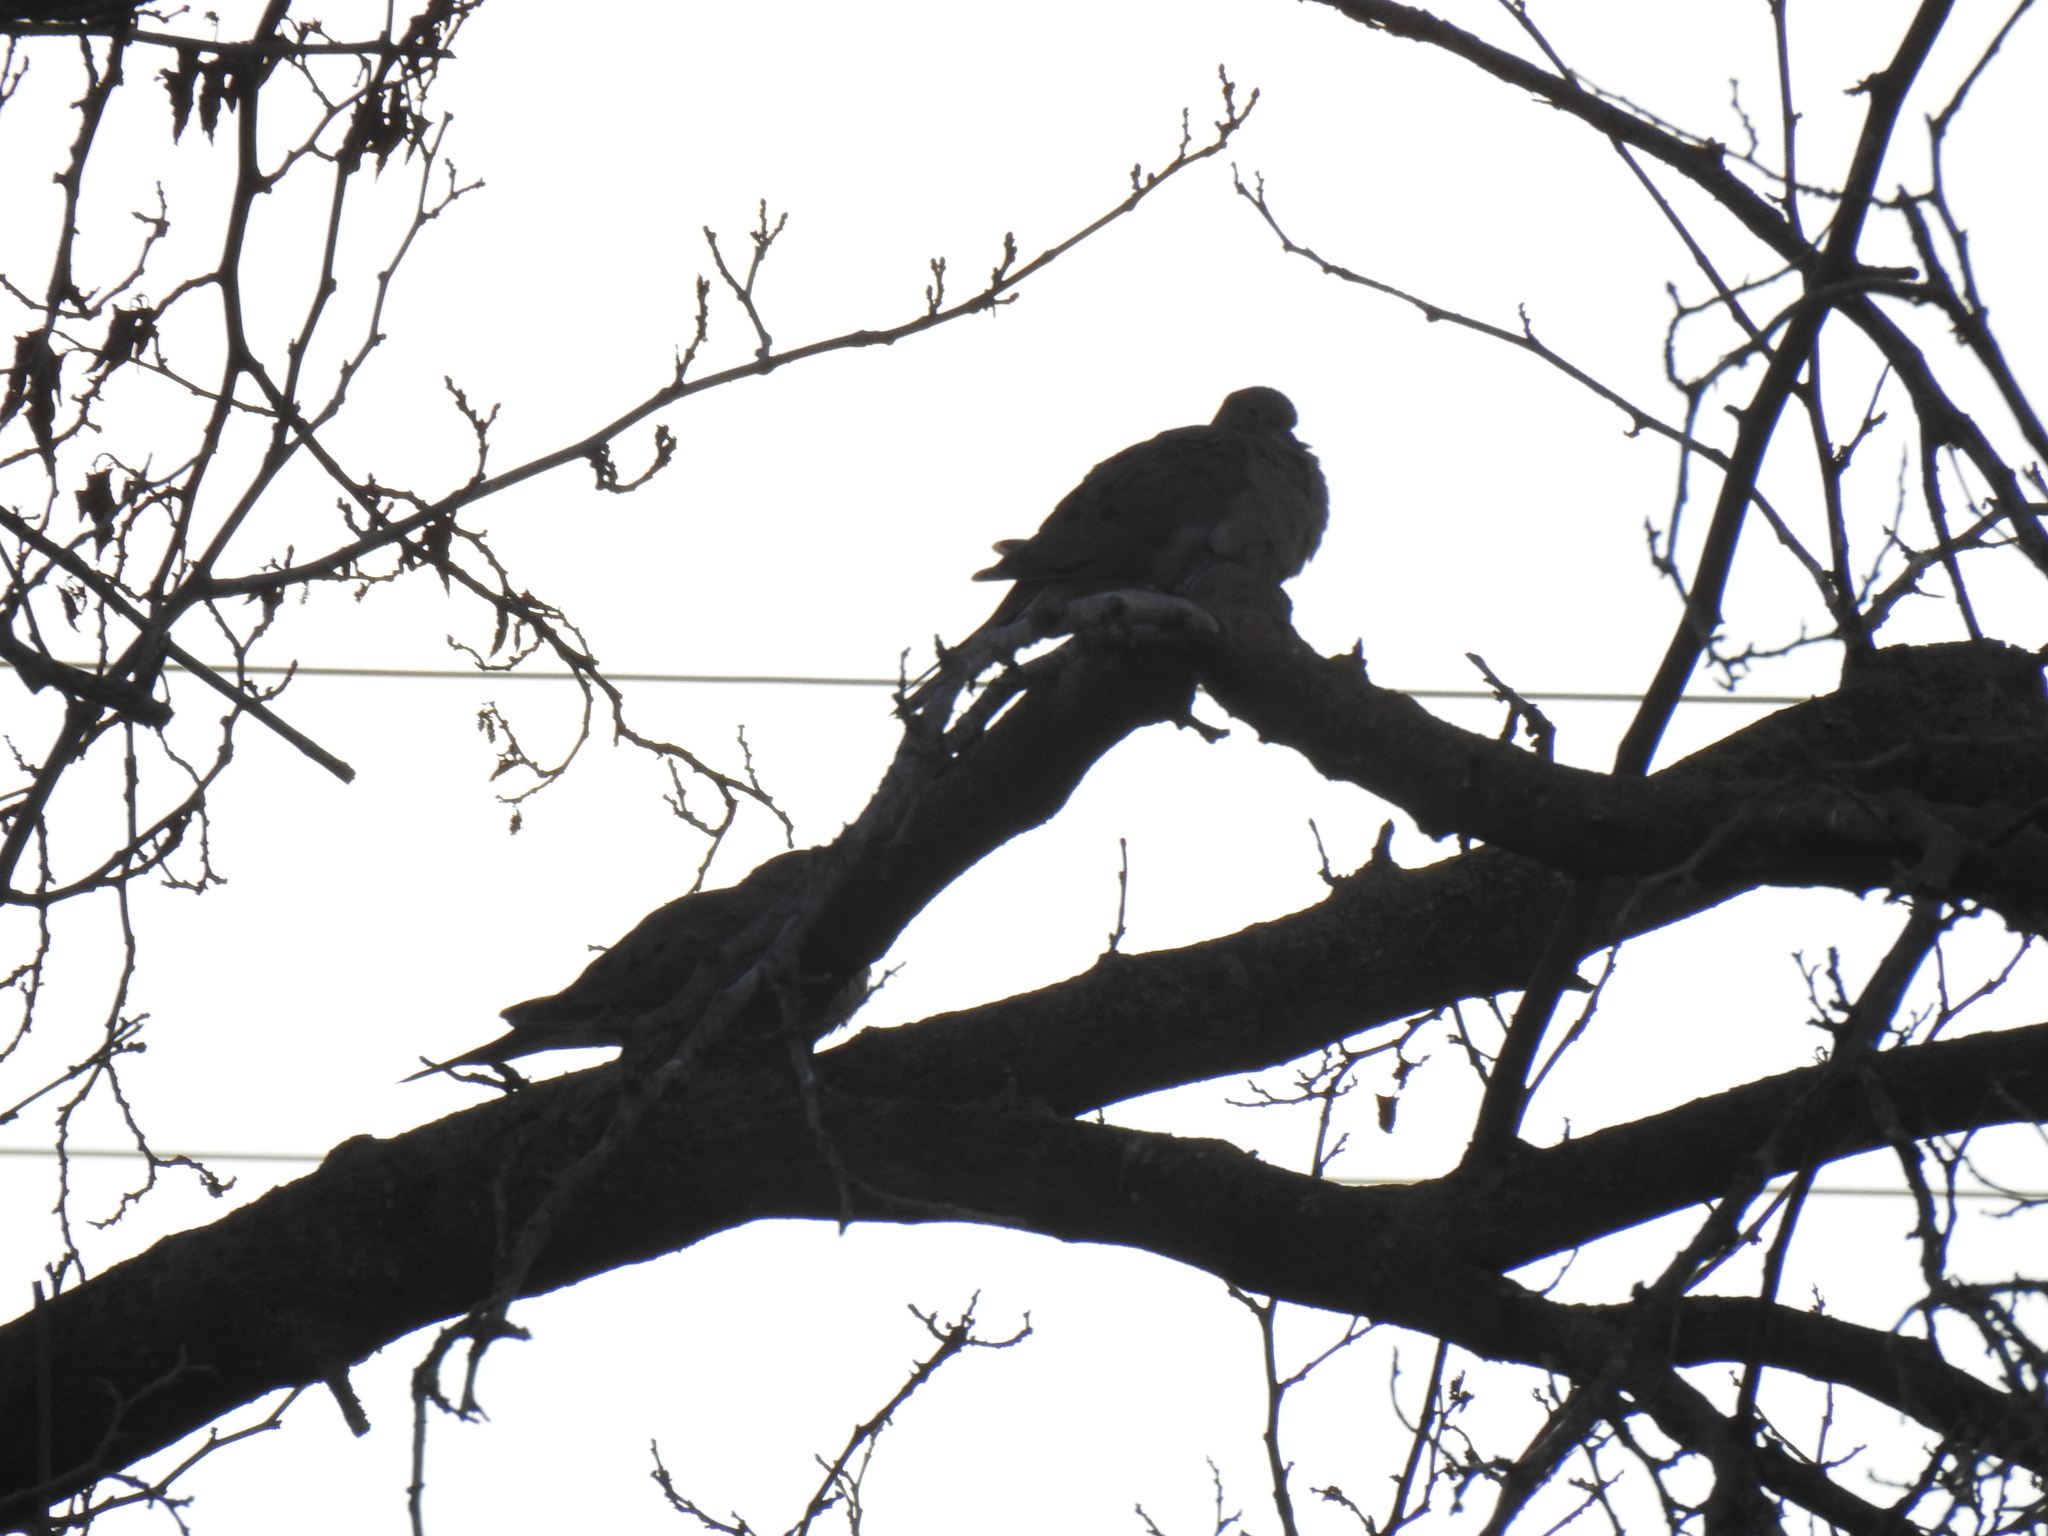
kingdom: Animalia
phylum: Chordata
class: Aves
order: Columbiformes
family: Columbidae
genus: Zenaida
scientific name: Zenaida macroura
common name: Mourning dove
